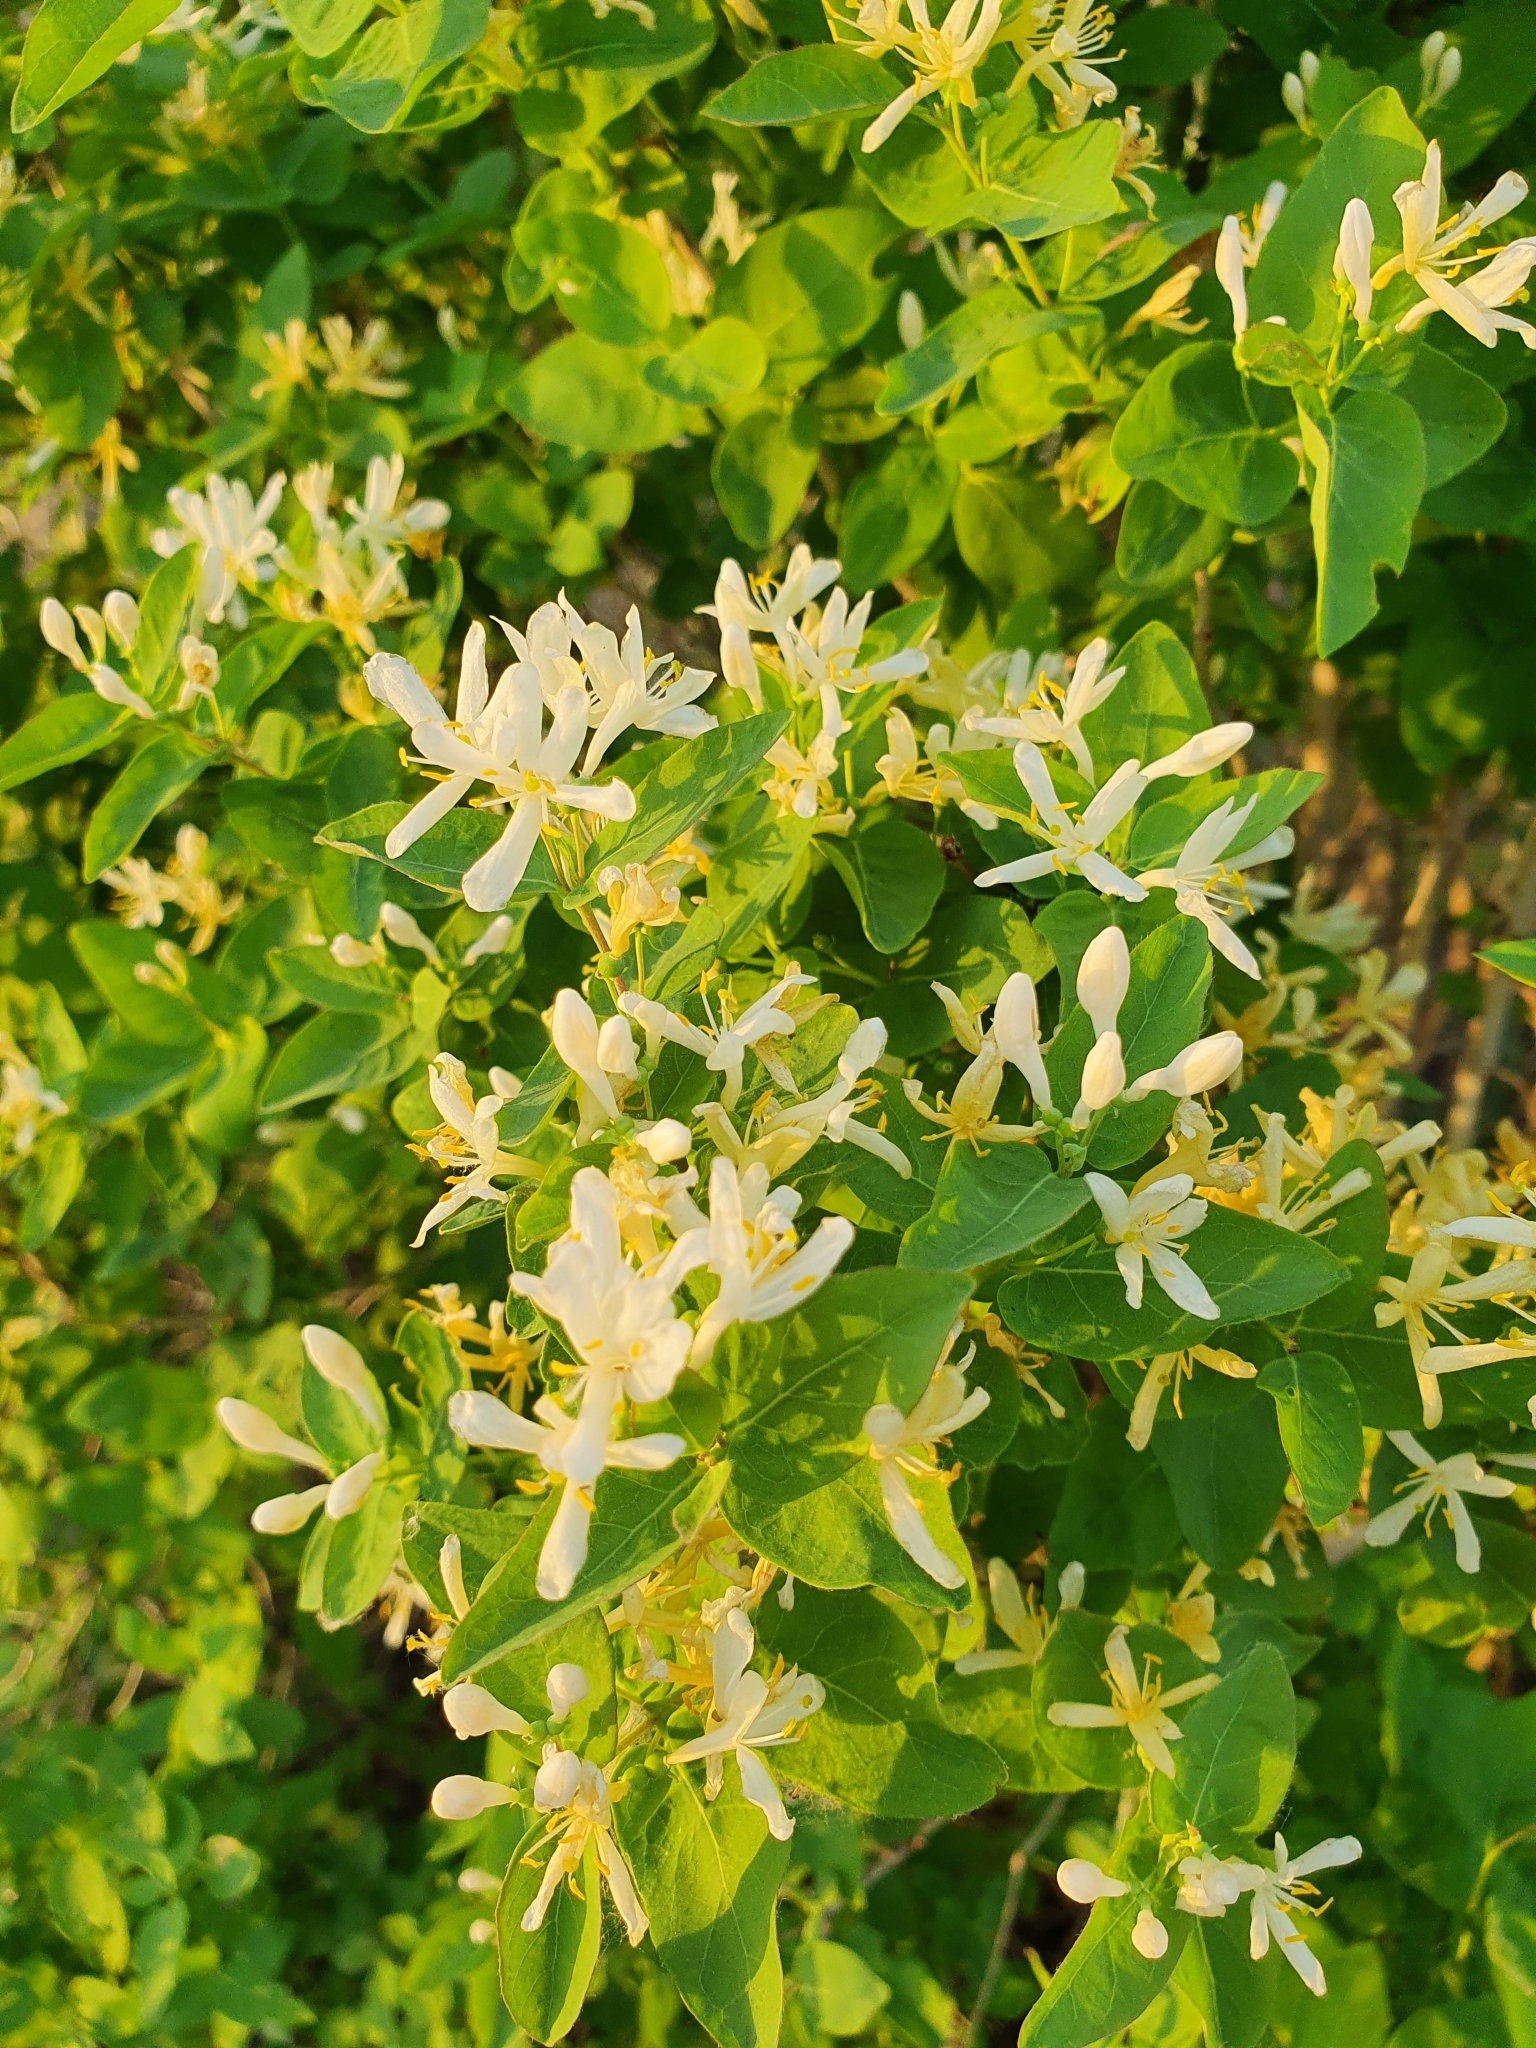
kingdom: Plantae
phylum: Tracheophyta
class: Magnoliopsida
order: Dipsacales
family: Caprifoliaceae
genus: Lonicera
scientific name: Lonicera tatarica
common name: Tatarian honeysuckle
